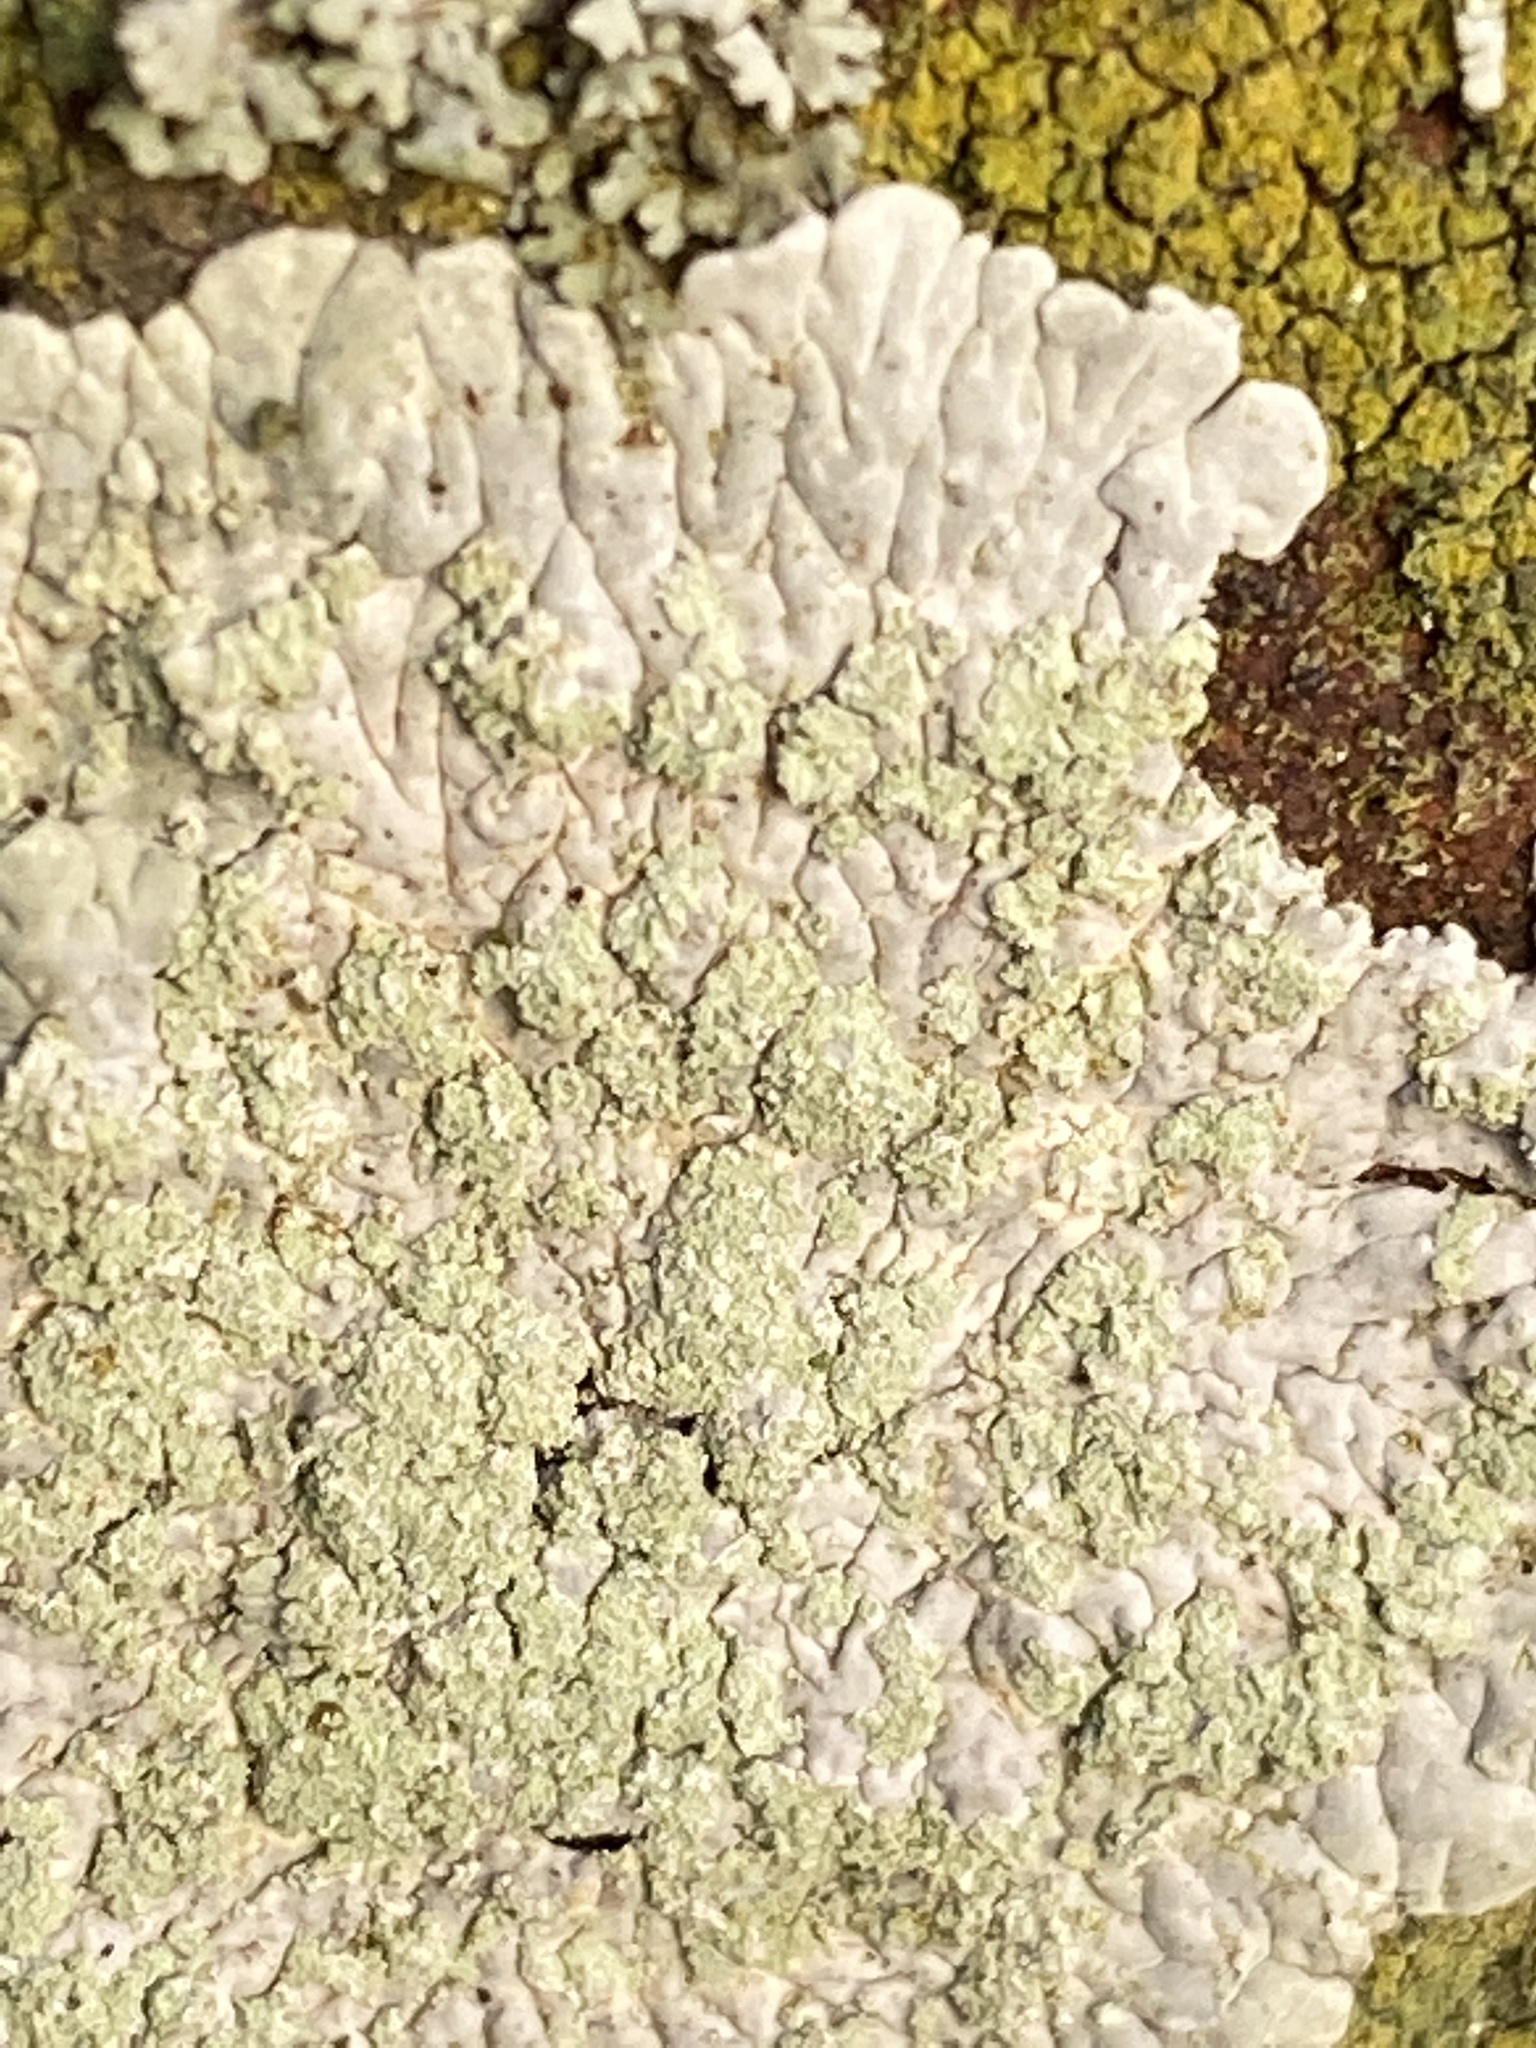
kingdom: Fungi
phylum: Ascomycota
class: Lecanoromycetes
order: Caliciales
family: Caliciaceae
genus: Diploicia
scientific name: Diploicia canescens
